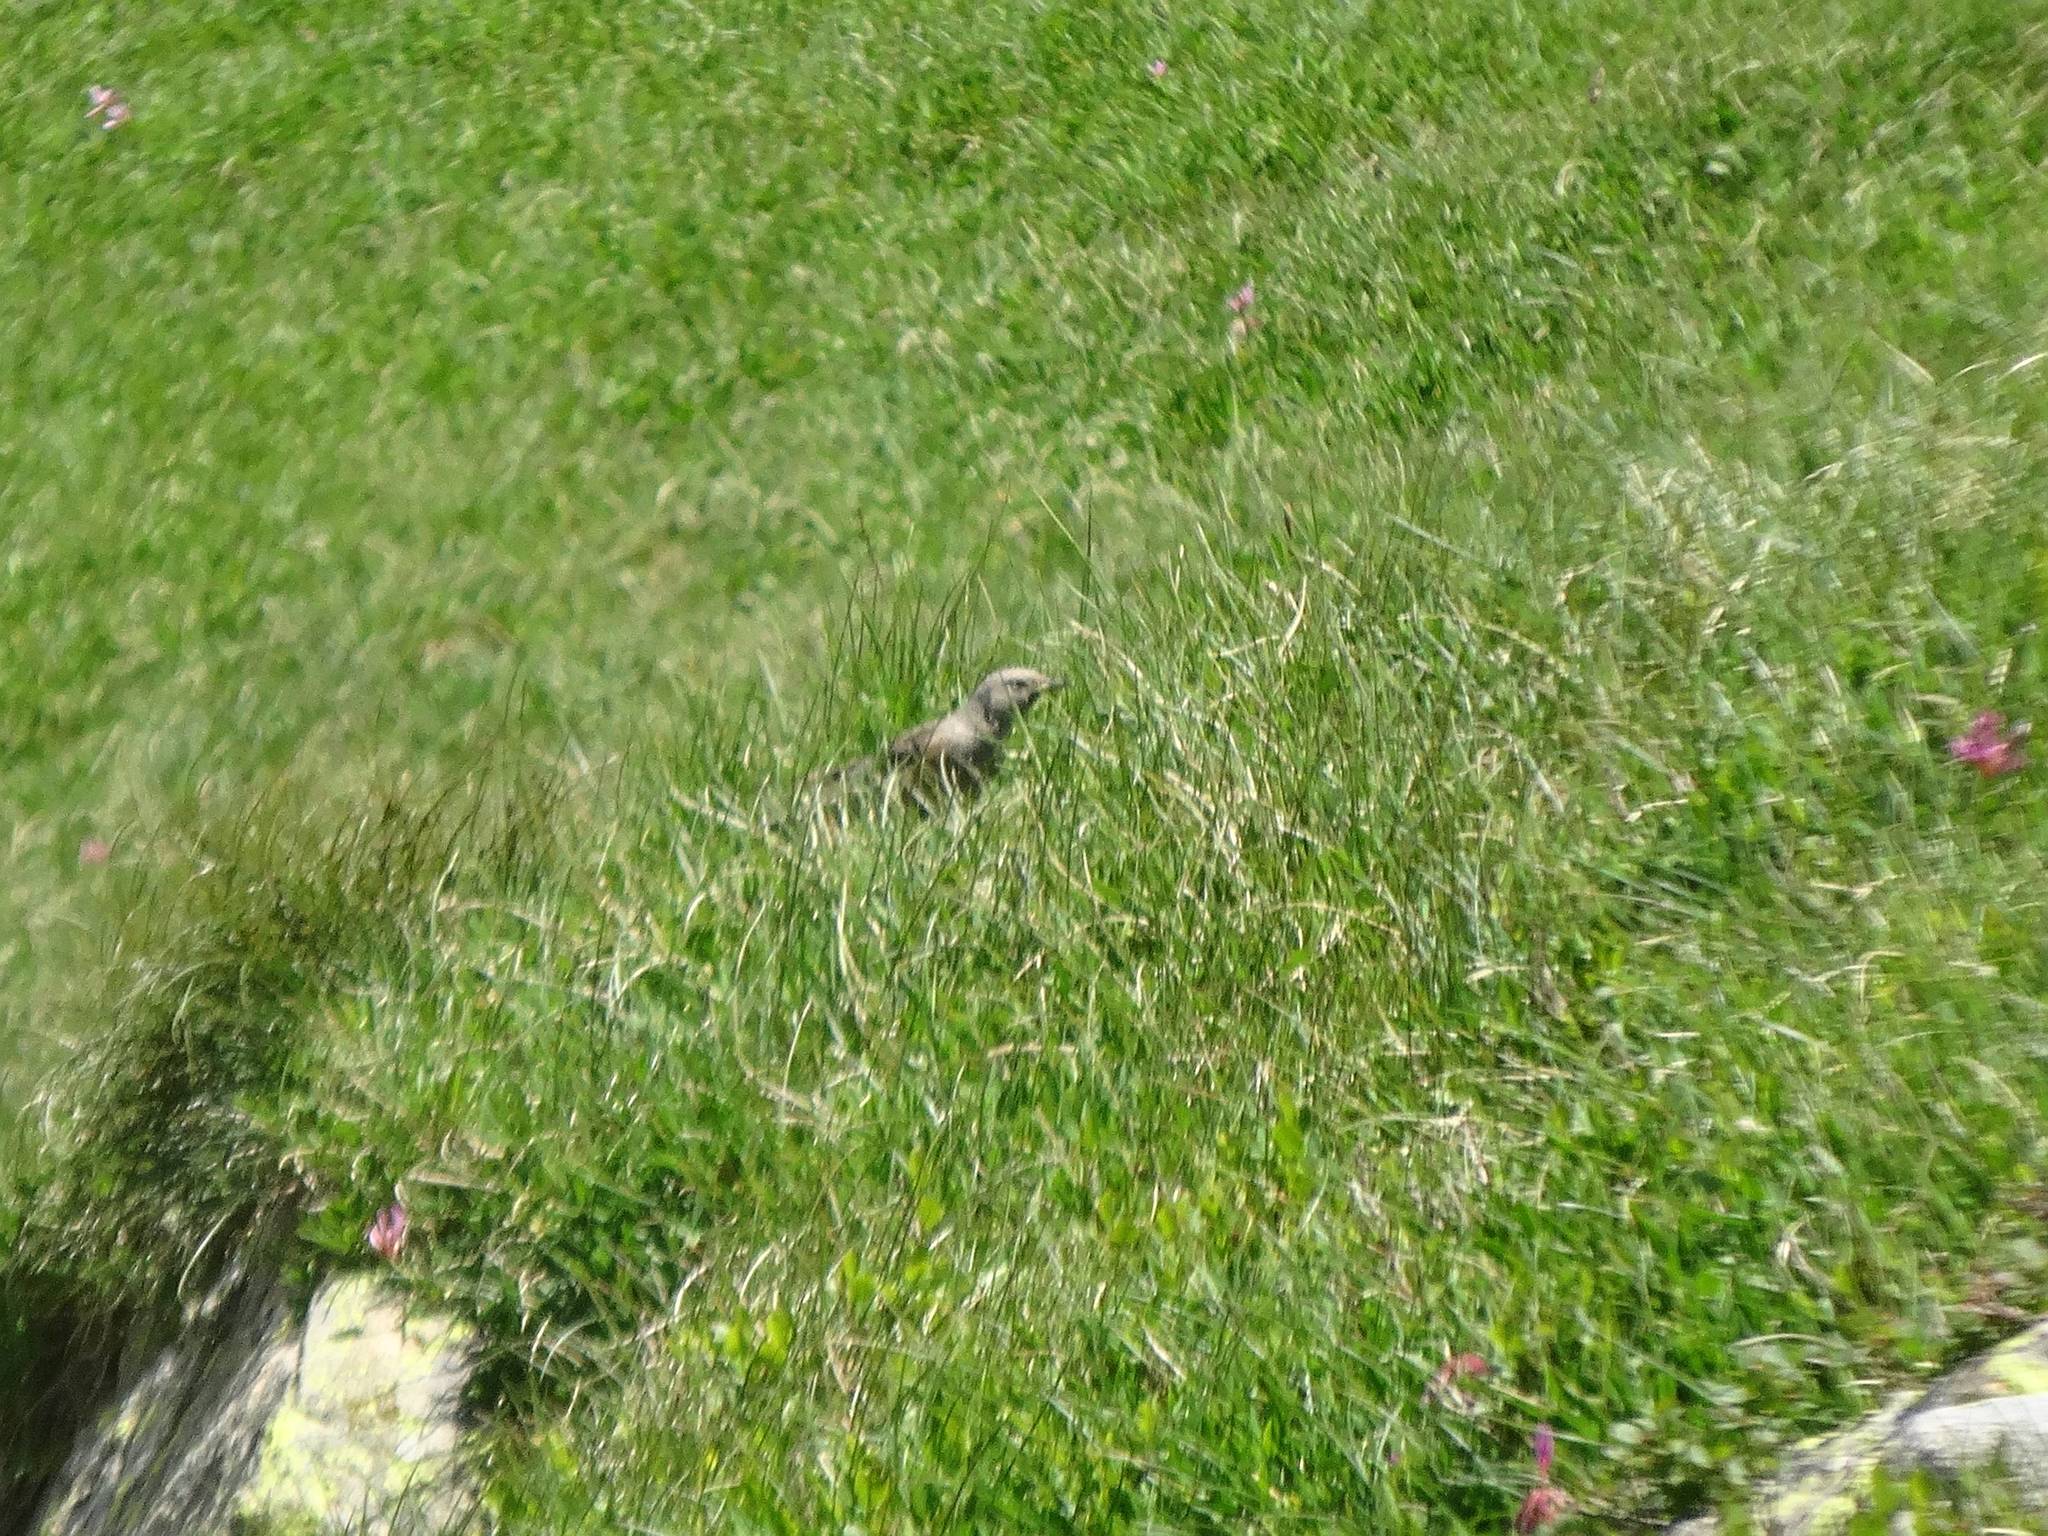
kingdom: Animalia
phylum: Chordata
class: Aves
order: Passeriformes
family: Turdidae
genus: Turdus
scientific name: Turdus viscivorus
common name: Mistle thrush
